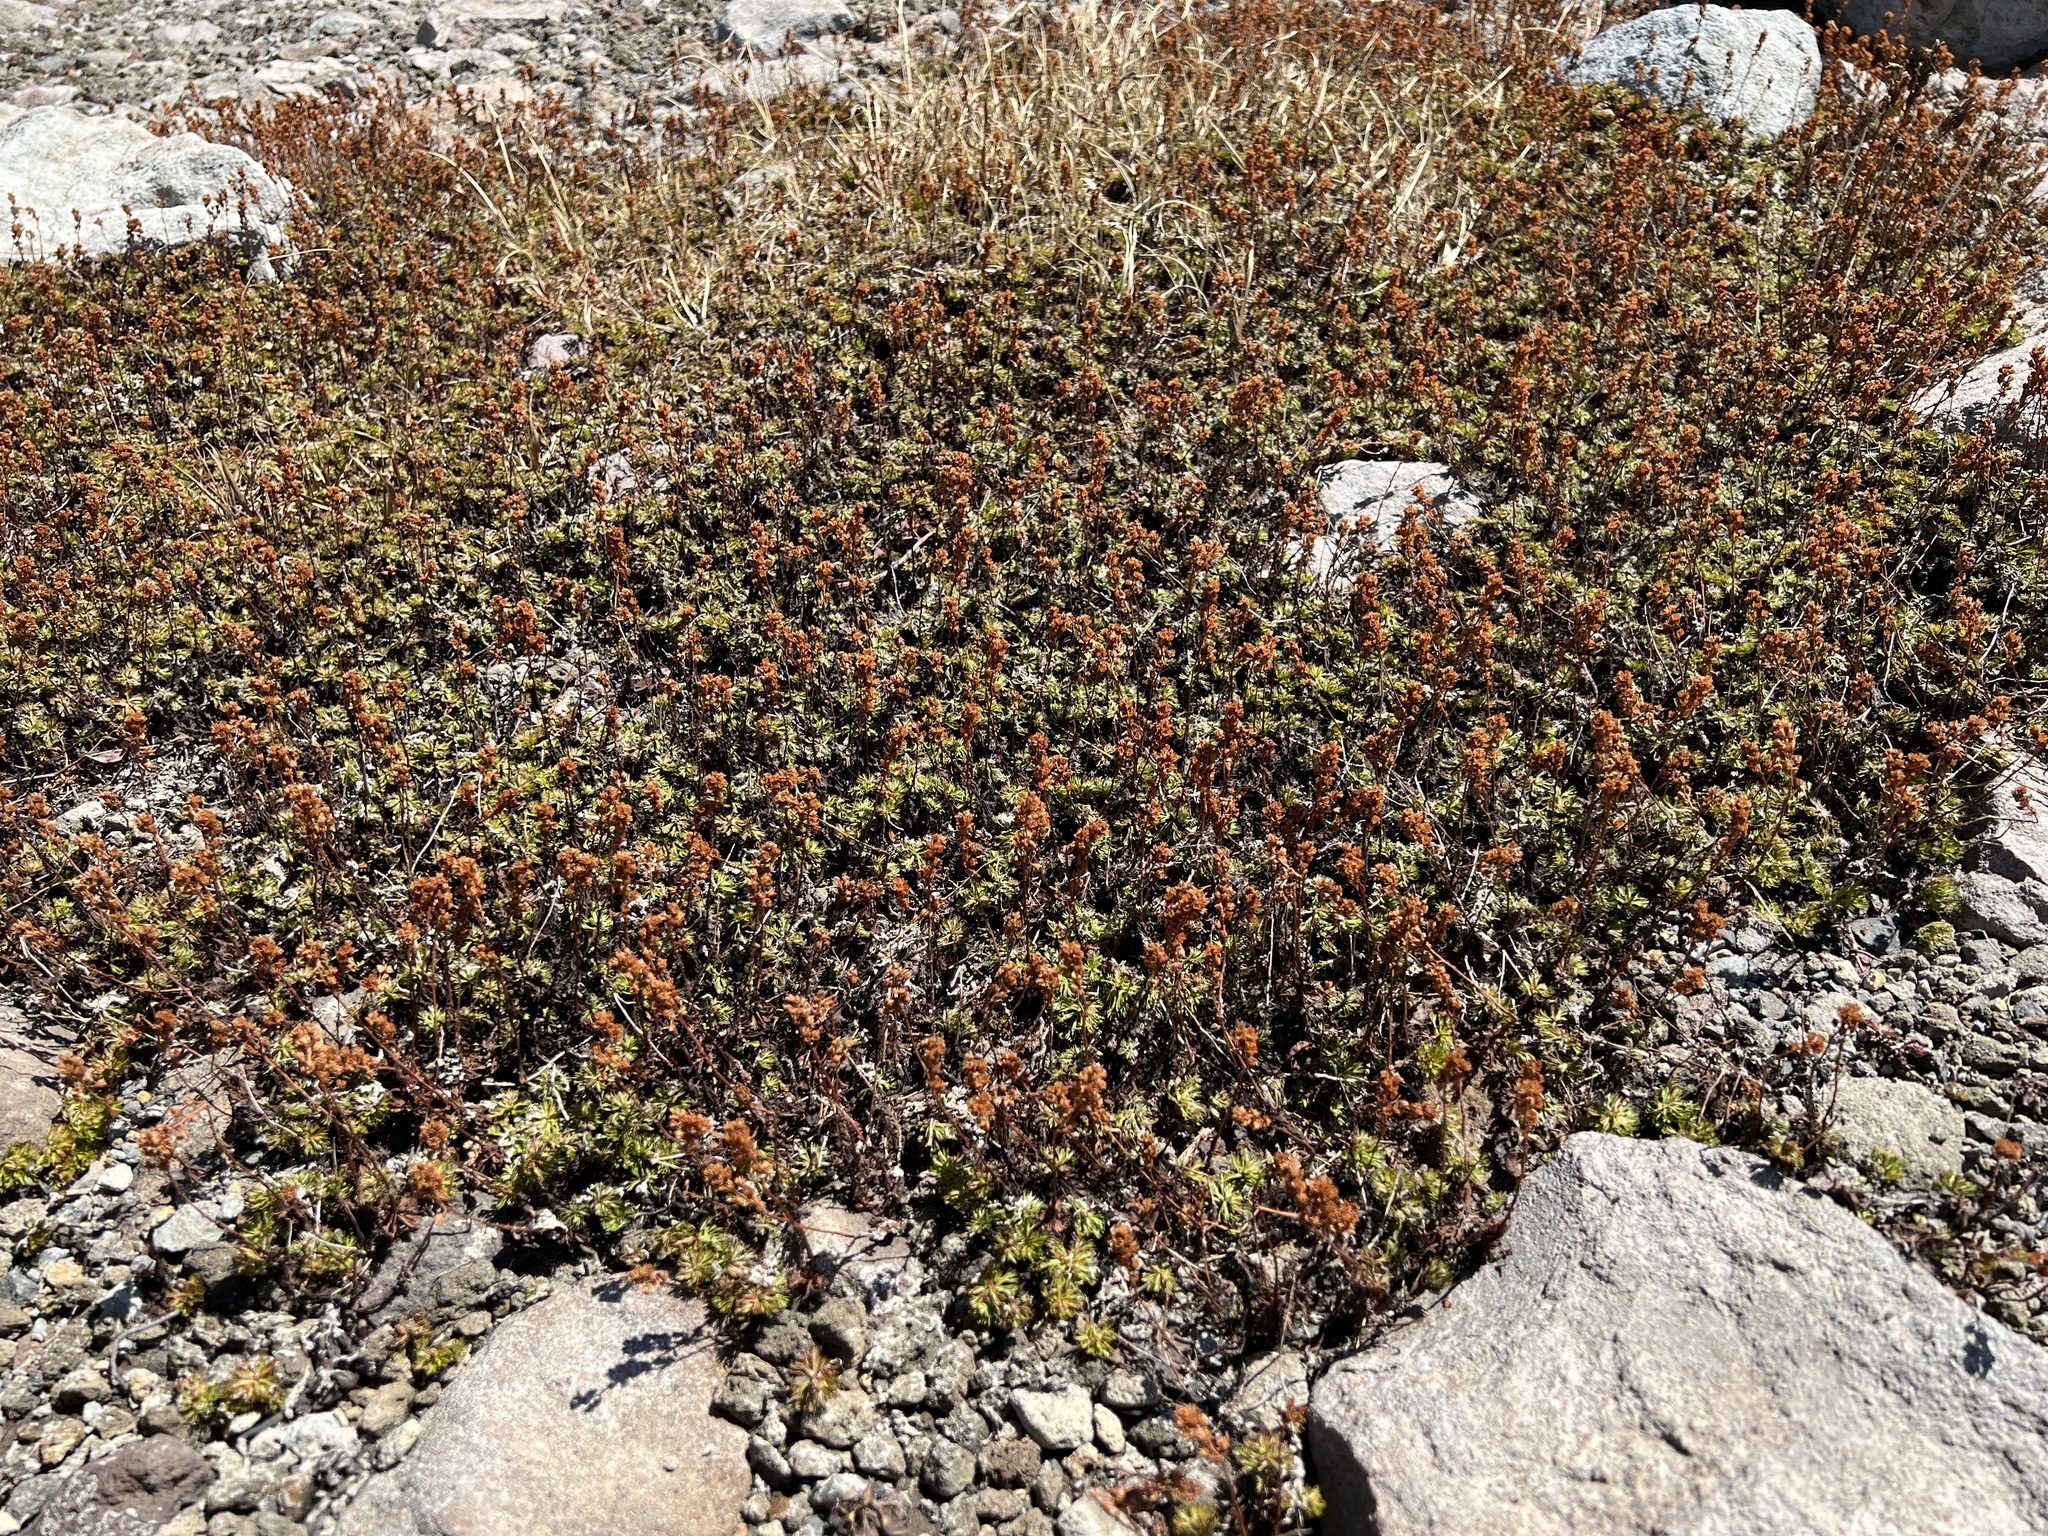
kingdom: Plantae
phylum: Tracheophyta
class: Magnoliopsida
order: Rosales
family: Rosaceae
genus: Luetkea
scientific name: Luetkea pectinata
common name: Partridgefoot
